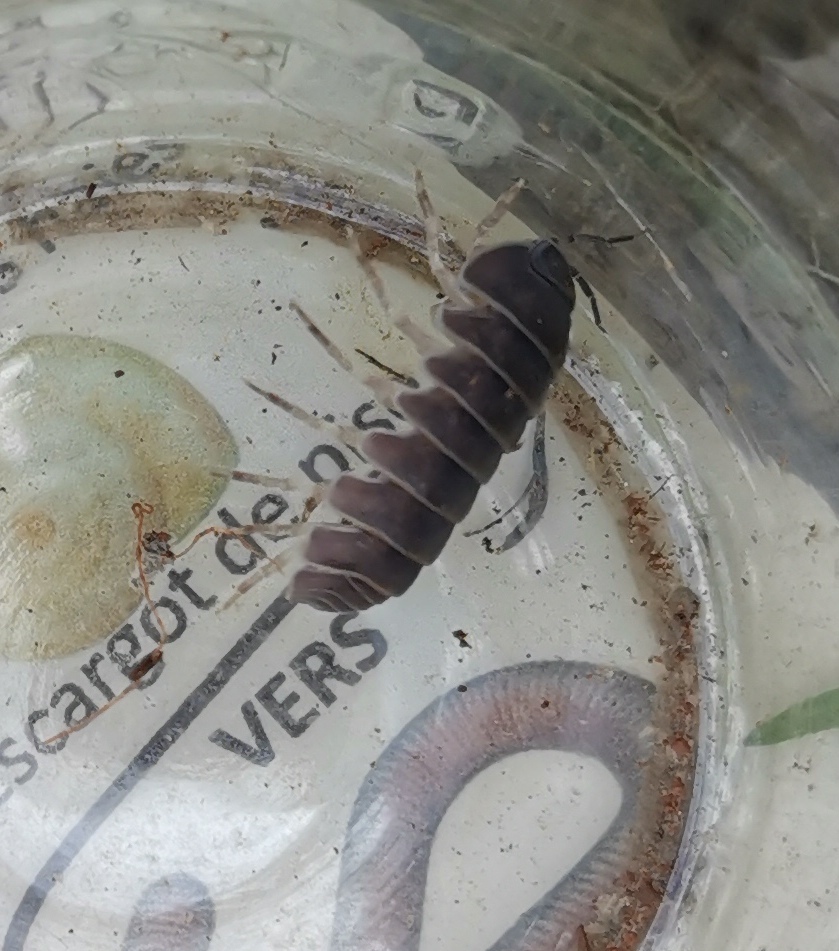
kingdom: Animalia
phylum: Arthropoda
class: Malacostraca
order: Isopoda
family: Armadillidae
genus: Armadillo
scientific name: Armadillo officinalis
